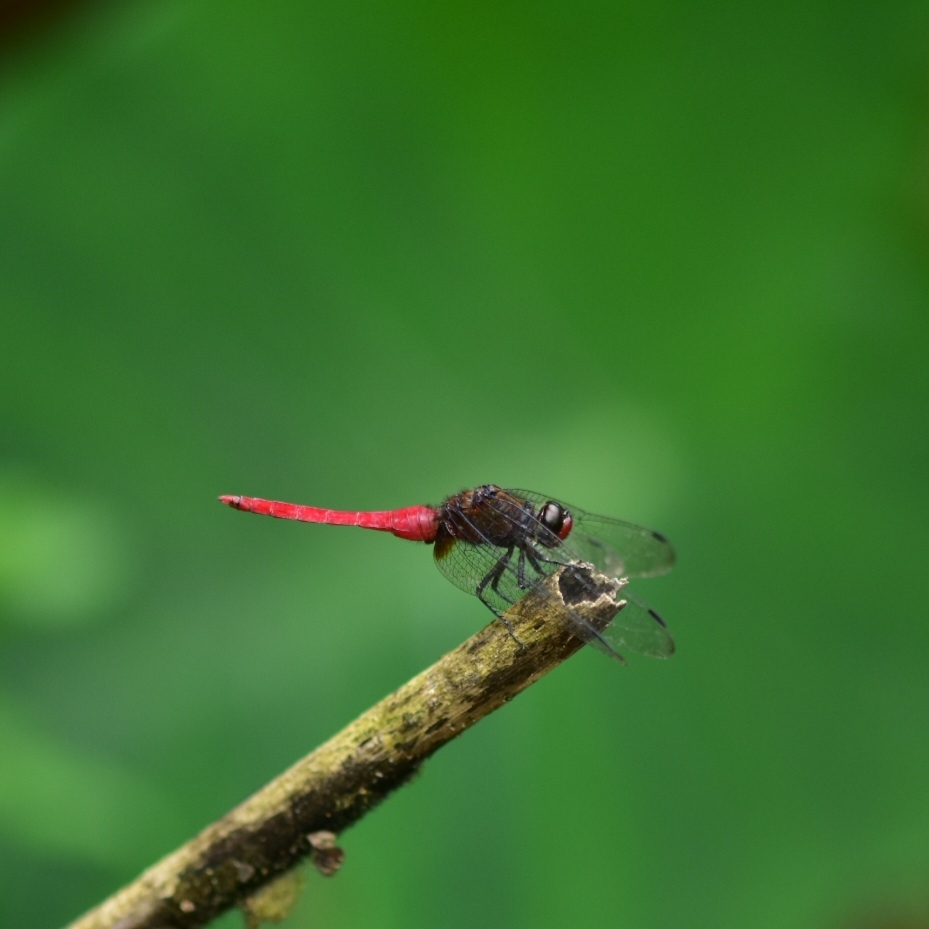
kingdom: Animalia
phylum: Arthropoda
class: Insecta
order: Odonata
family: Libellulidae
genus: Orthetrum
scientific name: Orthetrum chrysis
